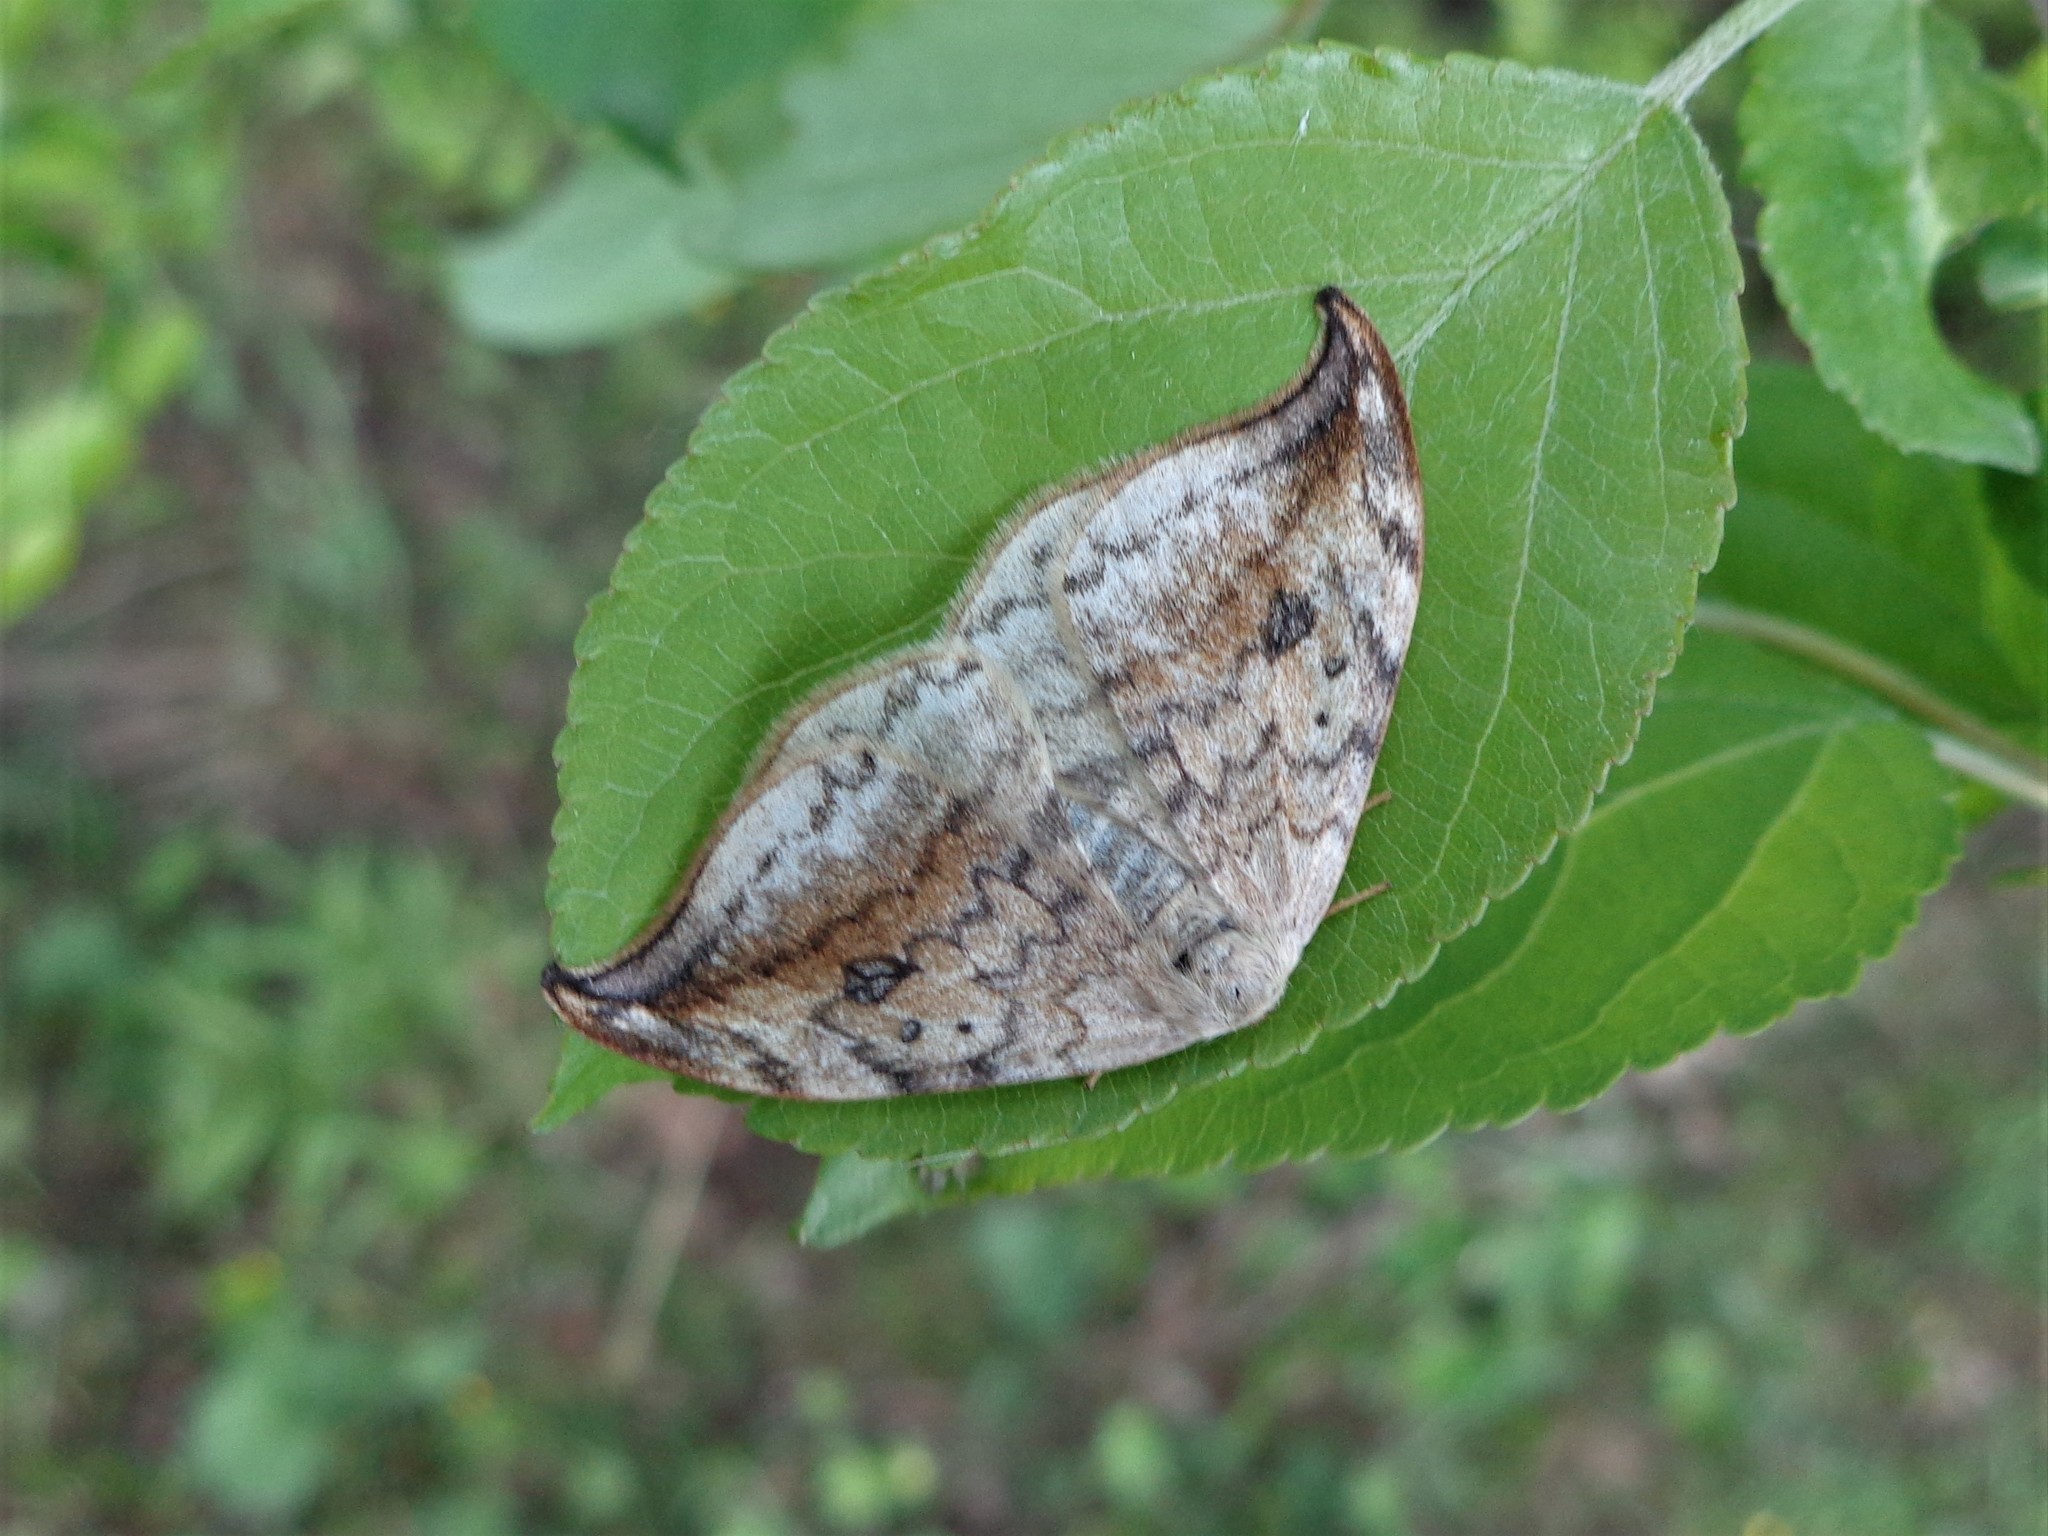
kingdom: Animalia
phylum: Arthropoda
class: Insecta
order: Lepidoptera
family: Drepanidae
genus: Drepana
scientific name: Drepana falcataria
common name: Pebble hook-tip
